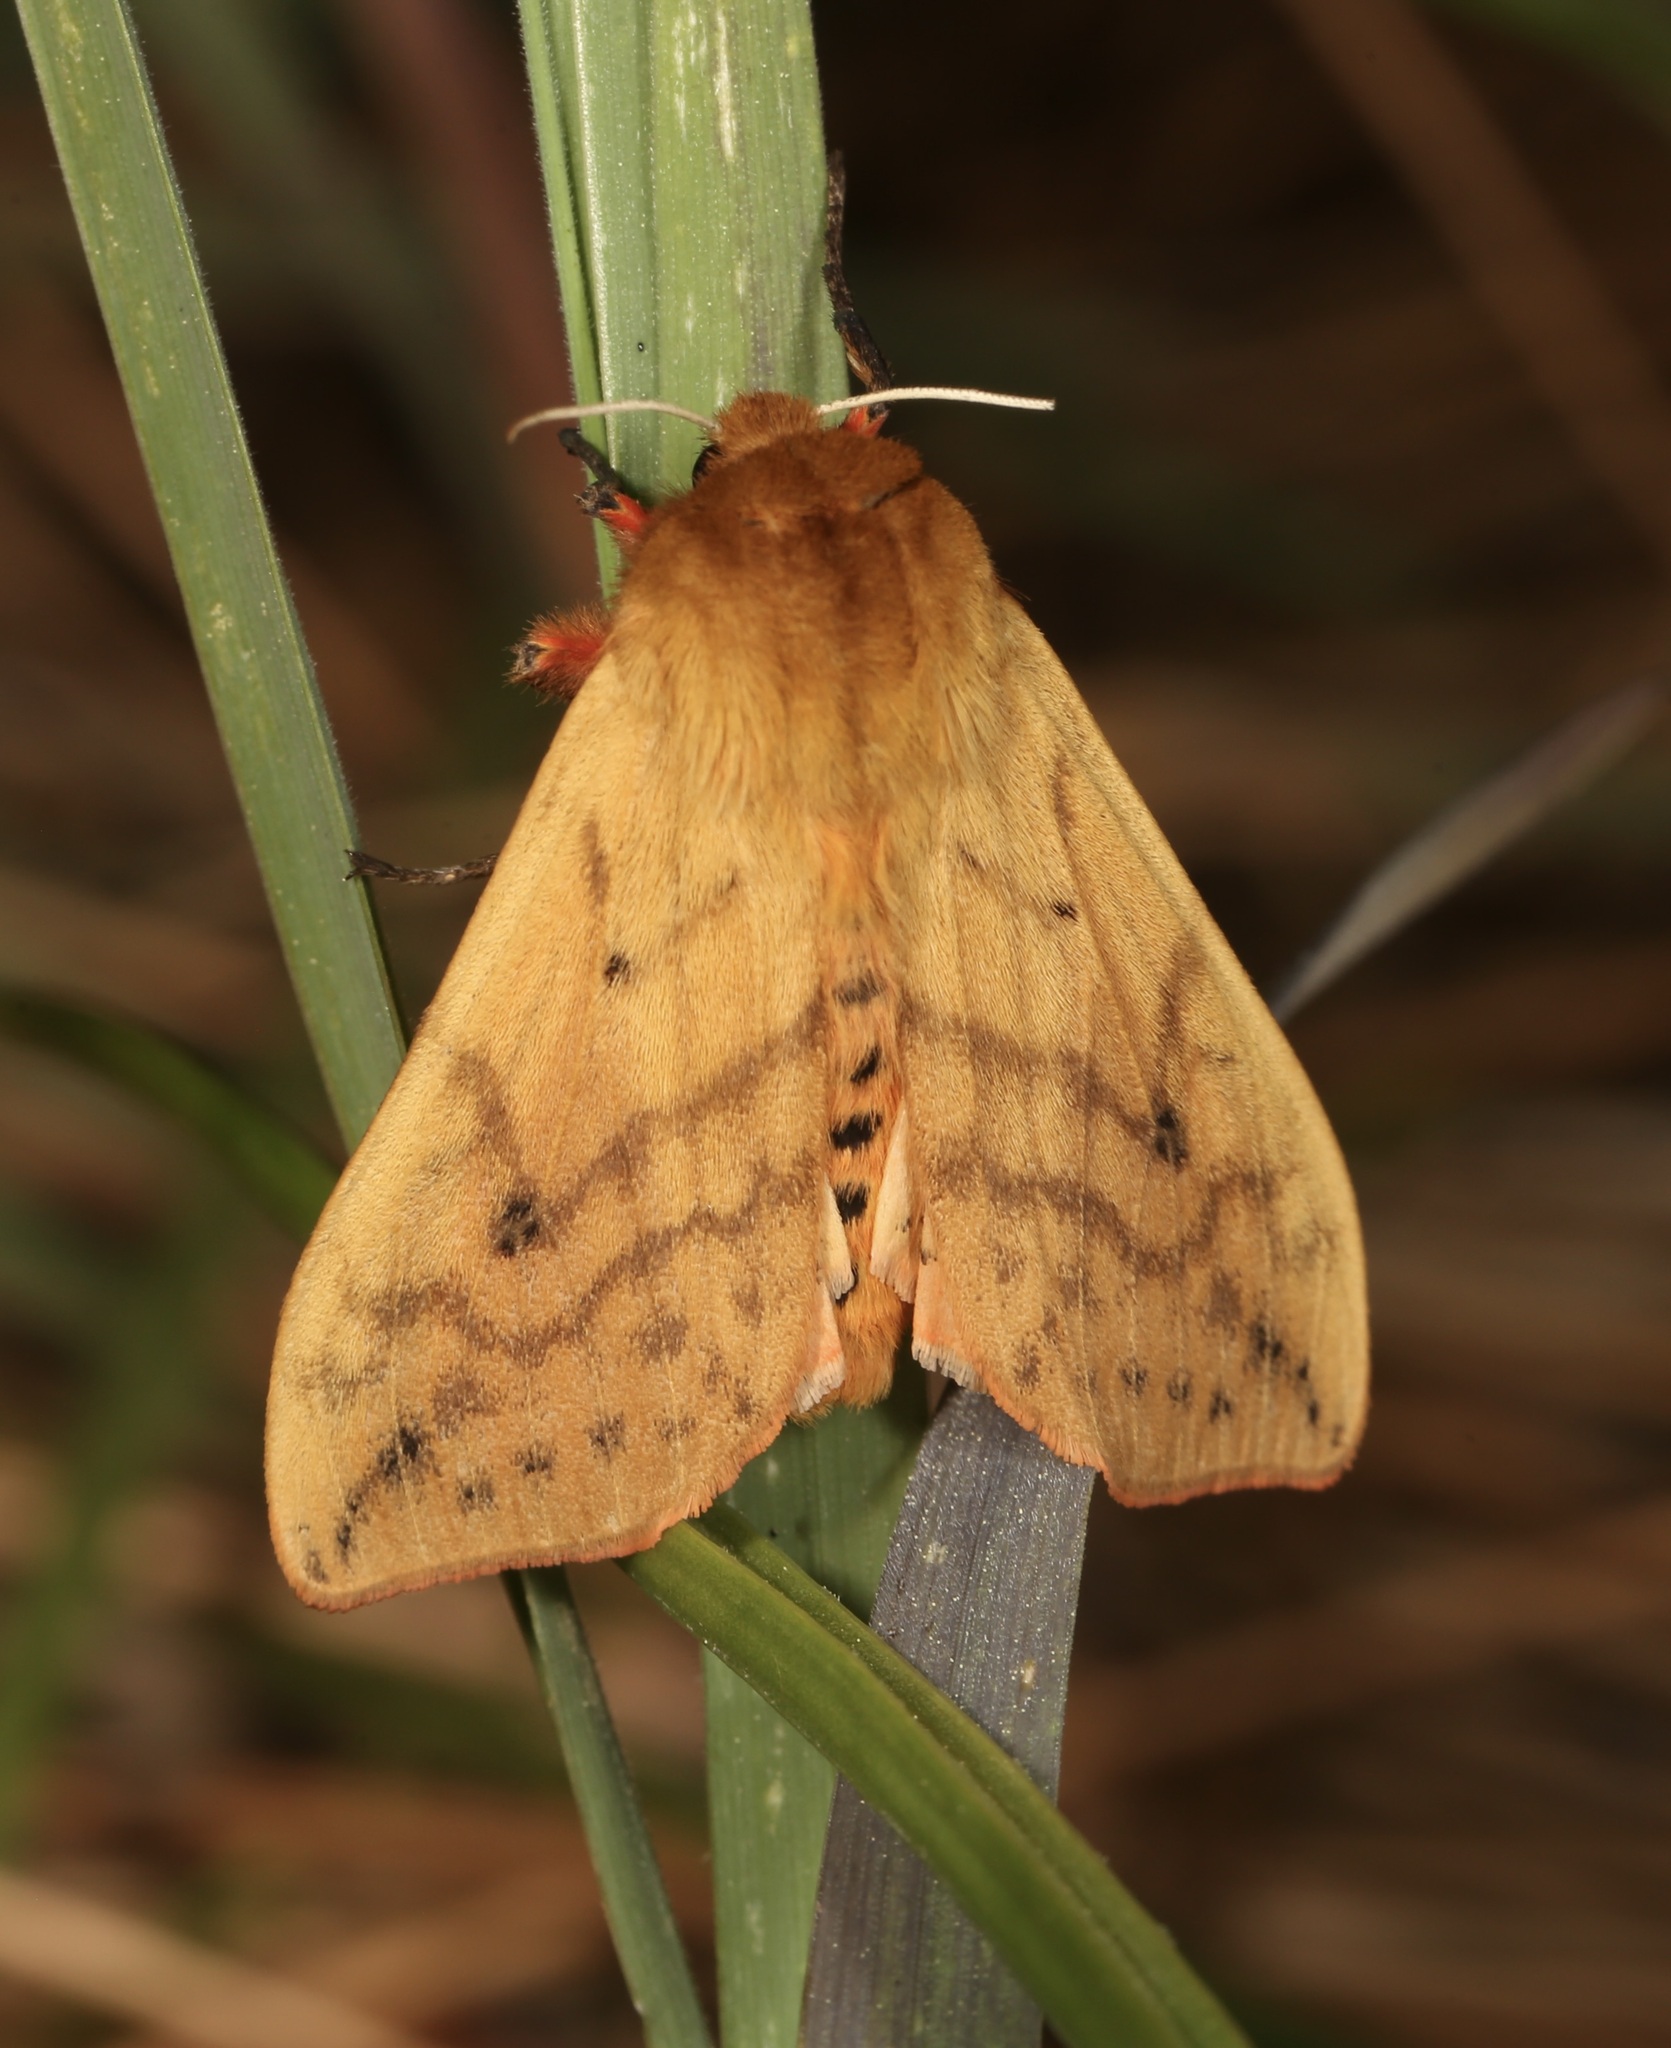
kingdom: Animalia
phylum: Arthropoda
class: Insecta
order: Lepidoptera
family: Erebidae
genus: Pyrrharctia
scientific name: Pyrrharctia isabella
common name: Isabella tiger moth
